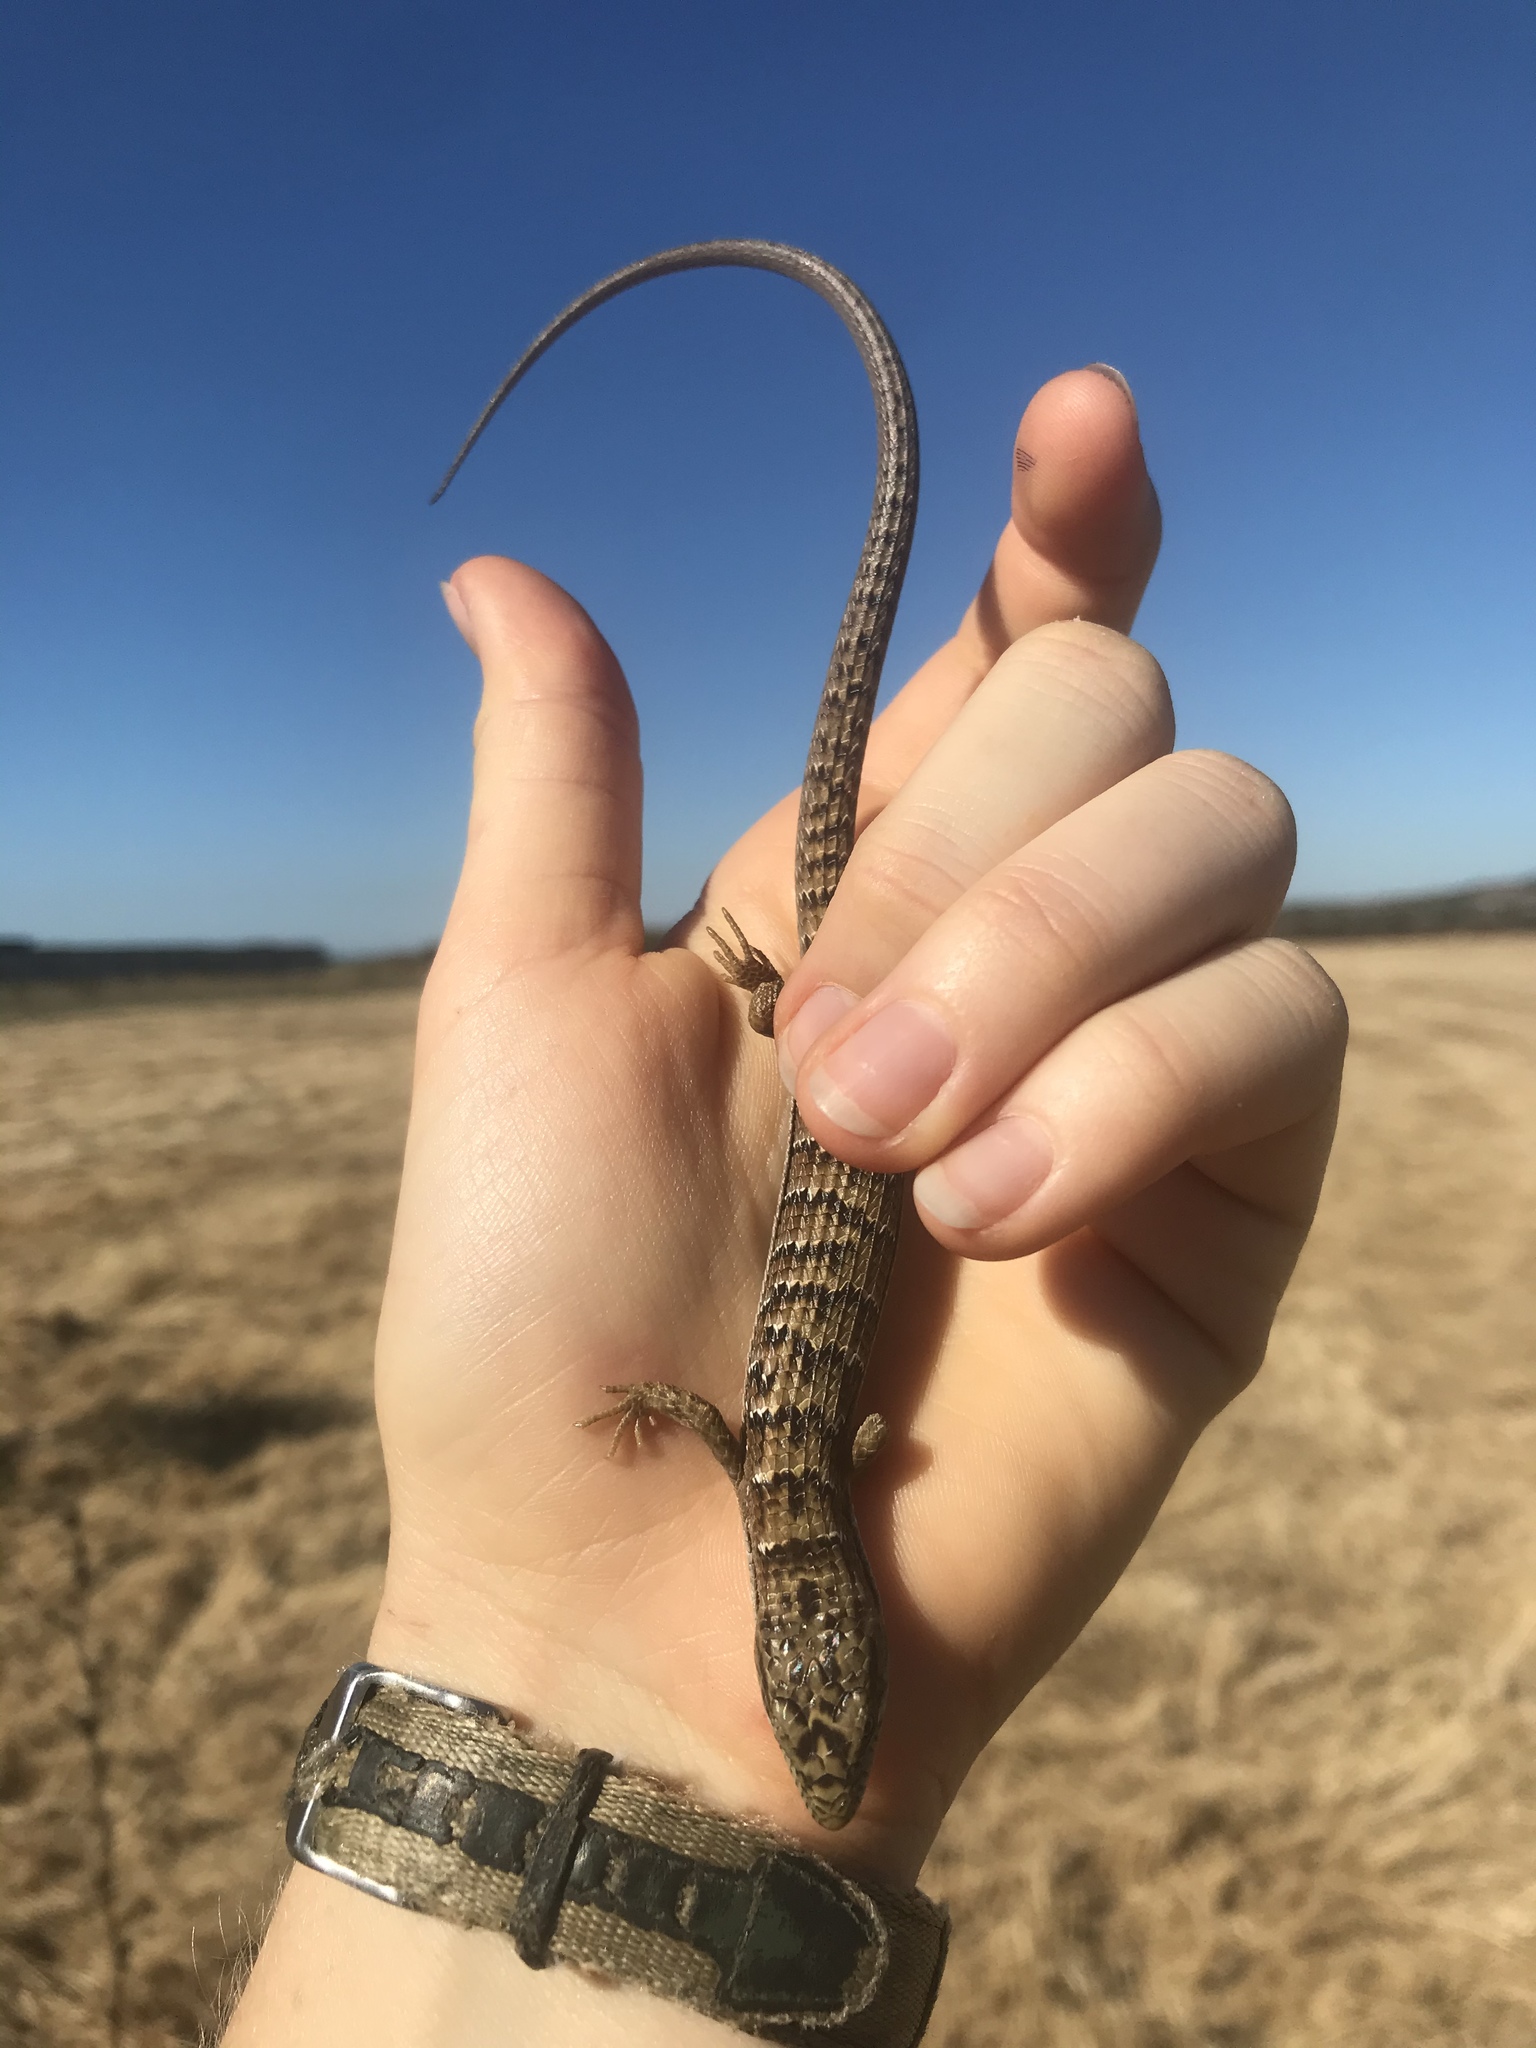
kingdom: Animalia
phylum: Chordata
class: Squamata
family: Anguidae
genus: Elgaria
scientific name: Elgaria multicarinata
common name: Southern alligator lizard
